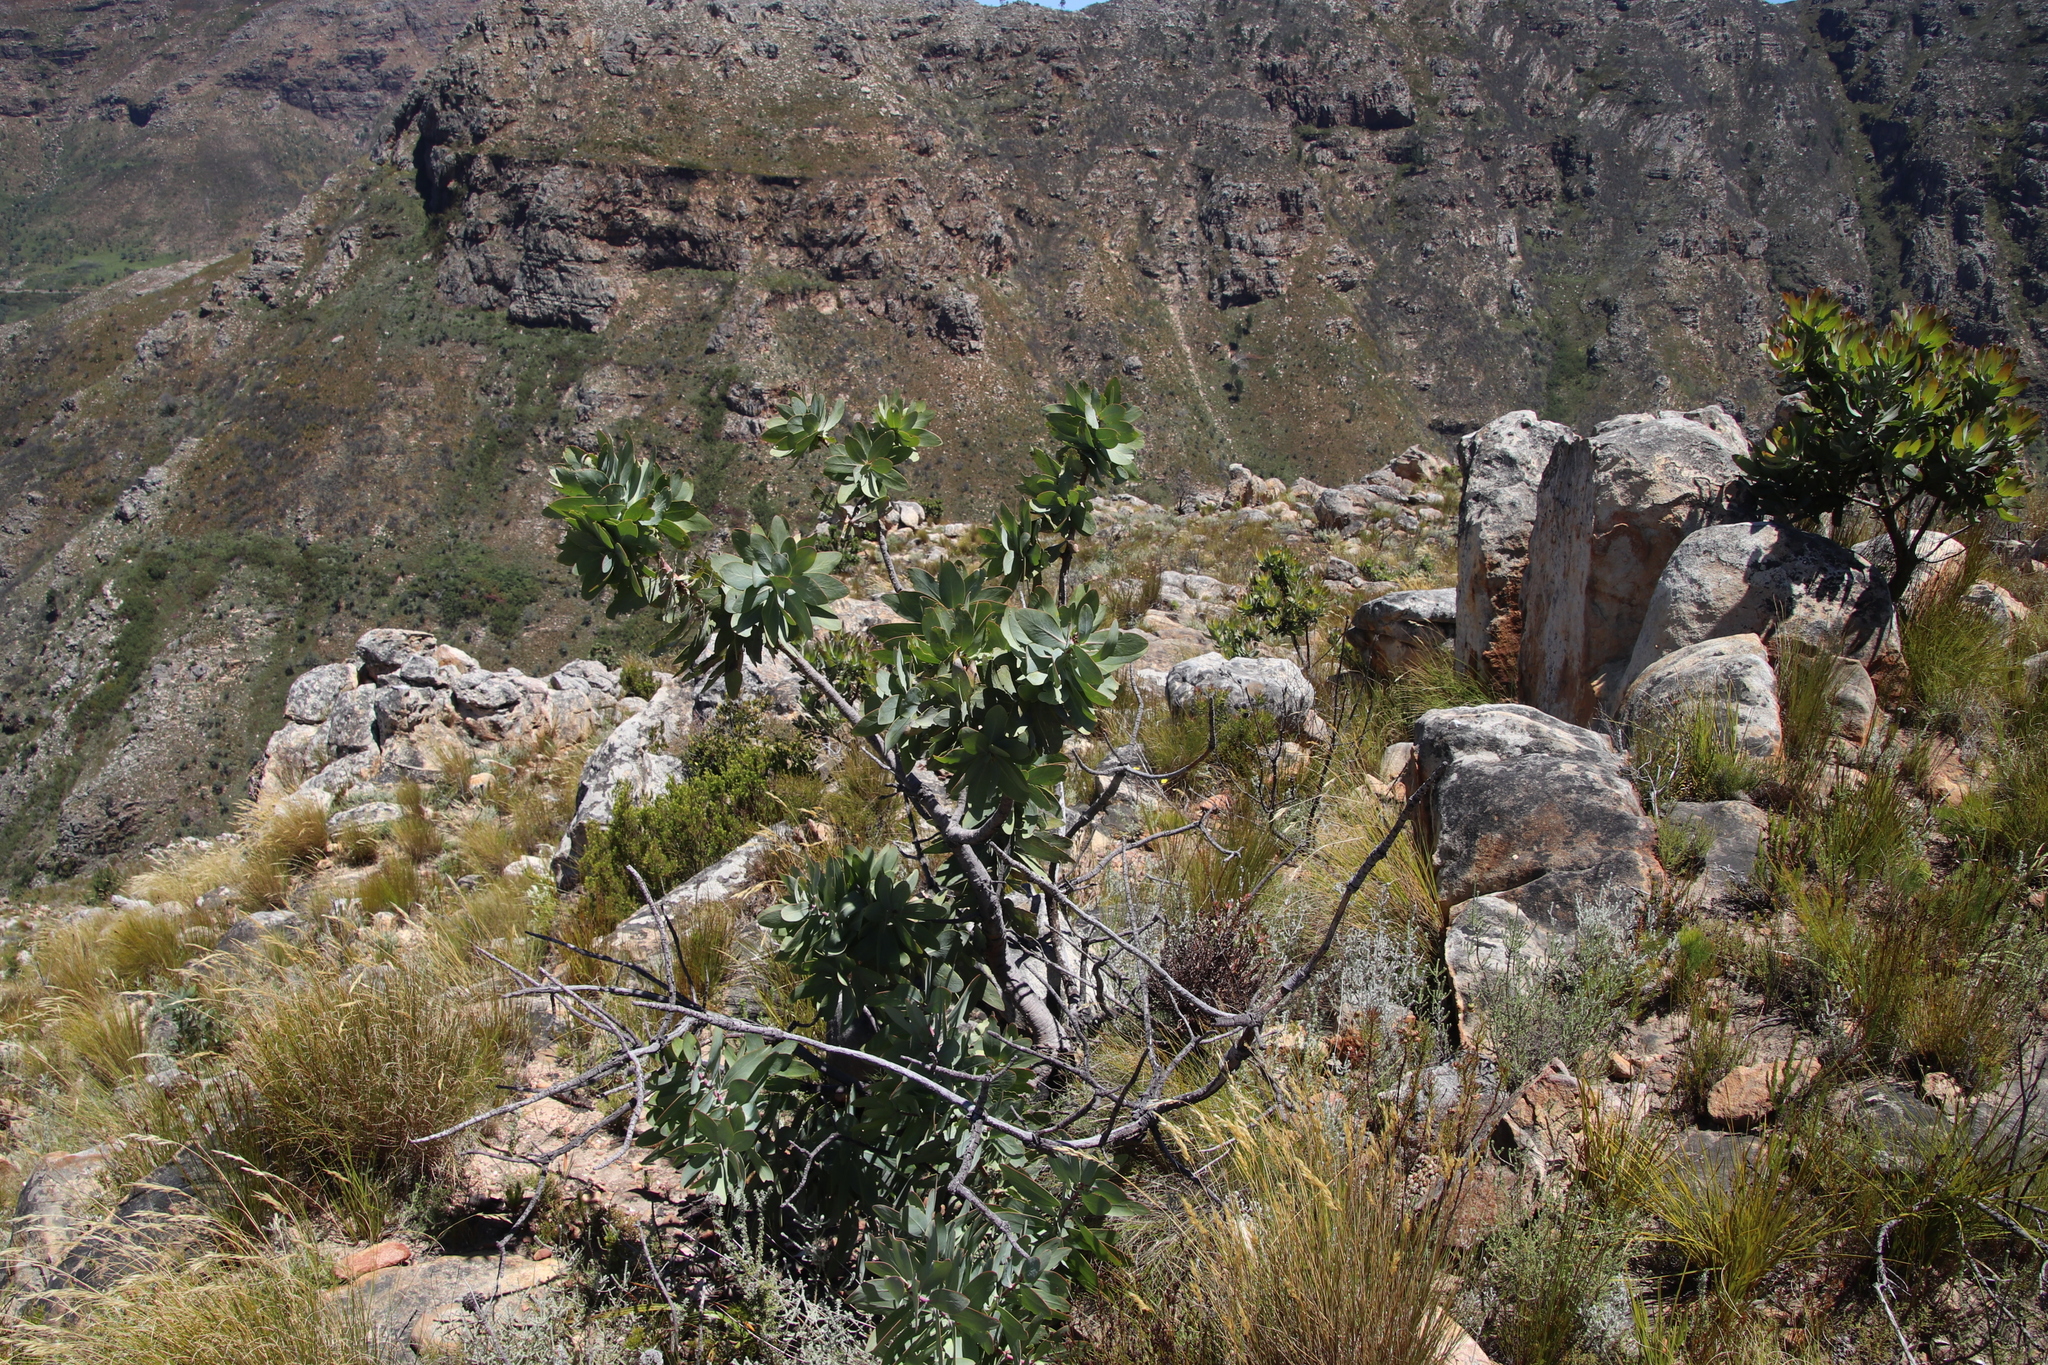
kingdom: Plantae
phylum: Tracheophyta
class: Magnoliopsida
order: Proteales
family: Proteaceae
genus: Protea
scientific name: Protea nitida
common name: Tree protea
